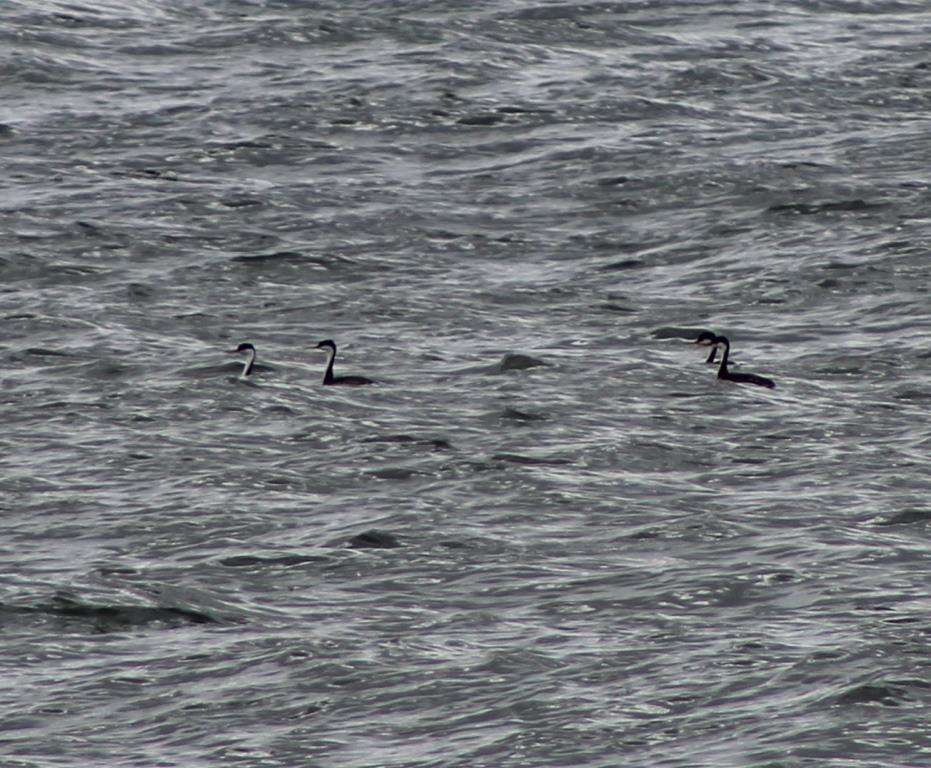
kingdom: Animalia
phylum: Chordata
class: Aves
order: Podicipediformes
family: Podicipedidae
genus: Aechmophorus
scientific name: Aechmophorus occidentalis
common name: Western grebe
